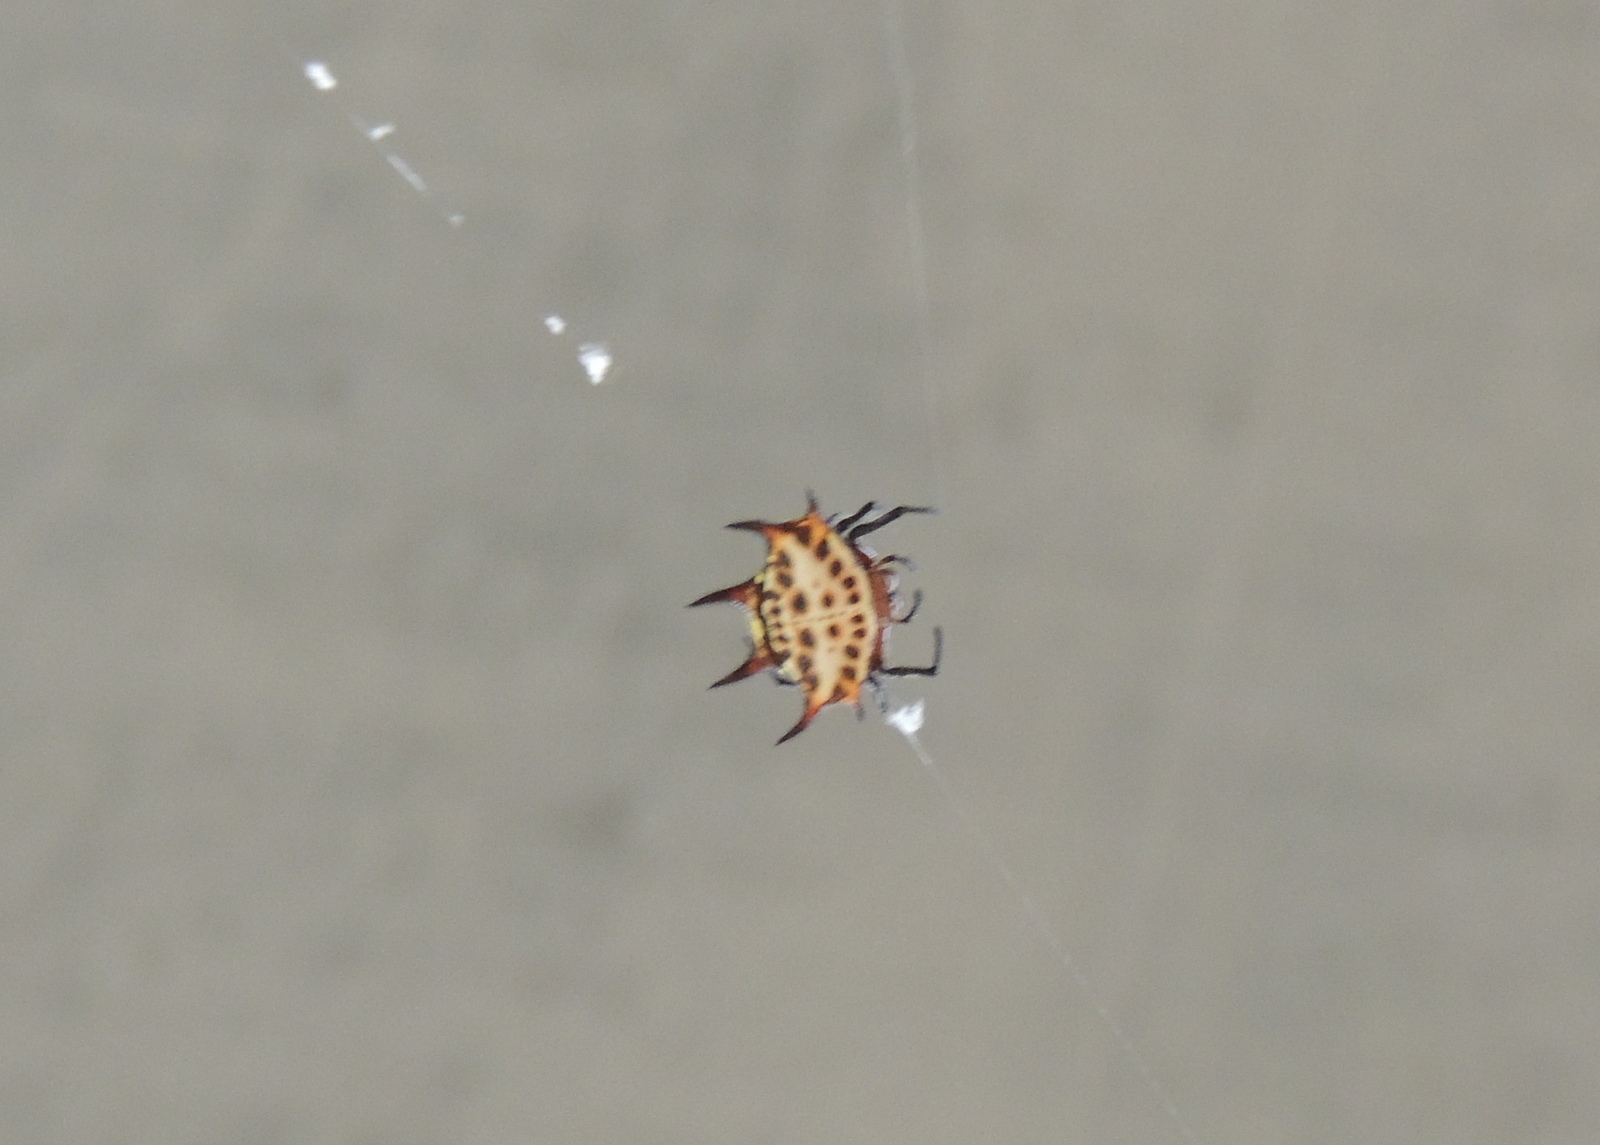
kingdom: Animalia
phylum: Arthropoda
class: Arachnida
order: Araneae
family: Araneidae
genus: Gasteracantha
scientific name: Gasteracantha curvispina
